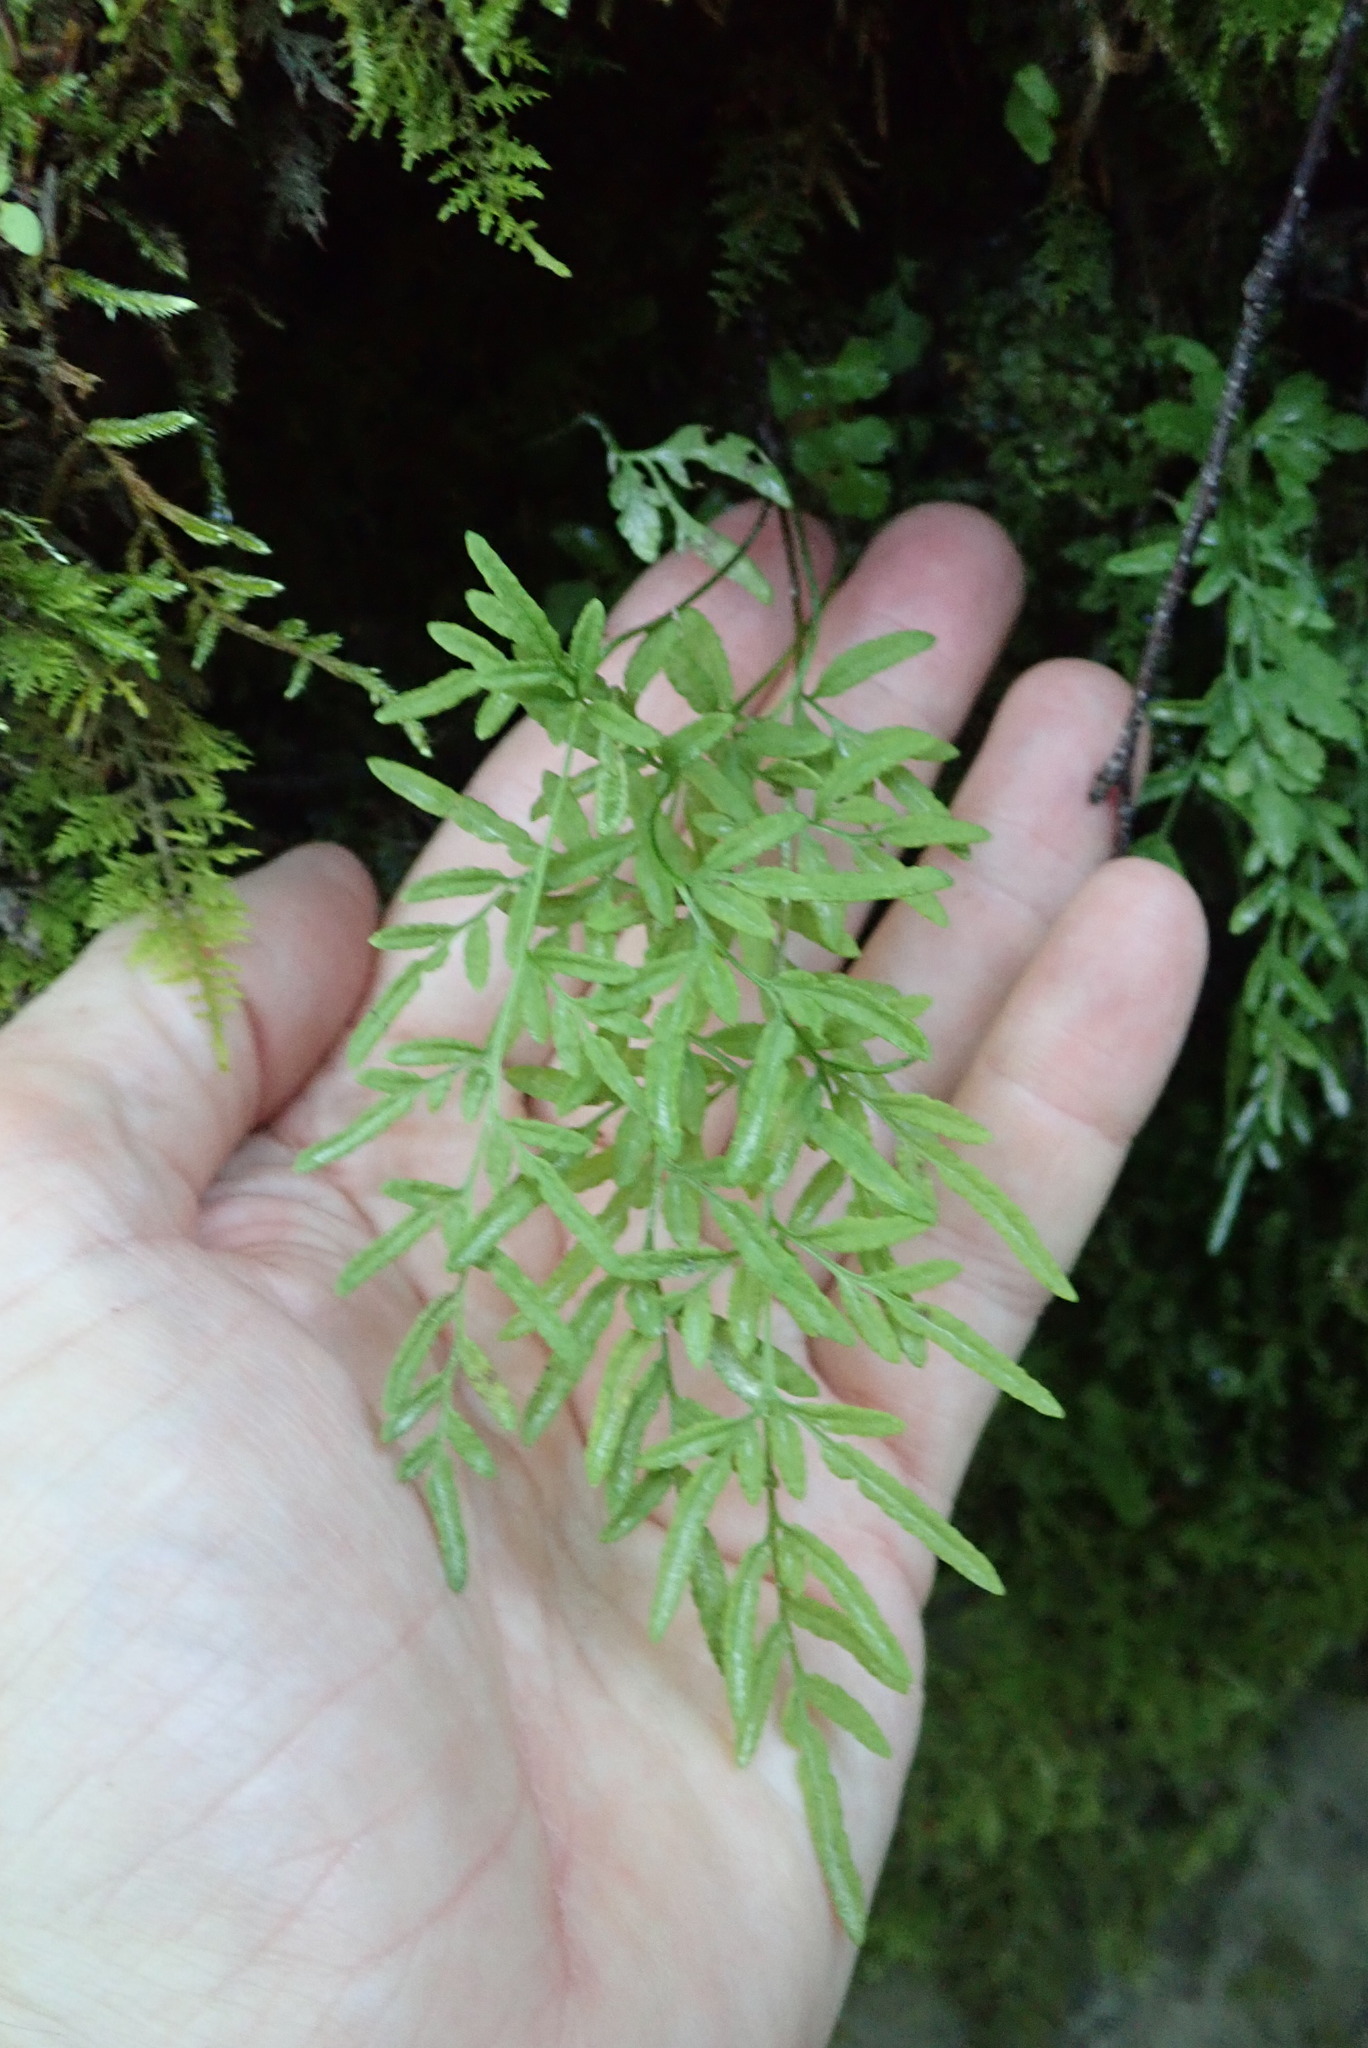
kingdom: Plantae
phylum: Tracheophyta
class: Polypodiopsida
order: Polypodiales
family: Pteridaceae
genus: Cryptogramma
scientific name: Cryptogramma stelleri
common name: Cliff-brake
